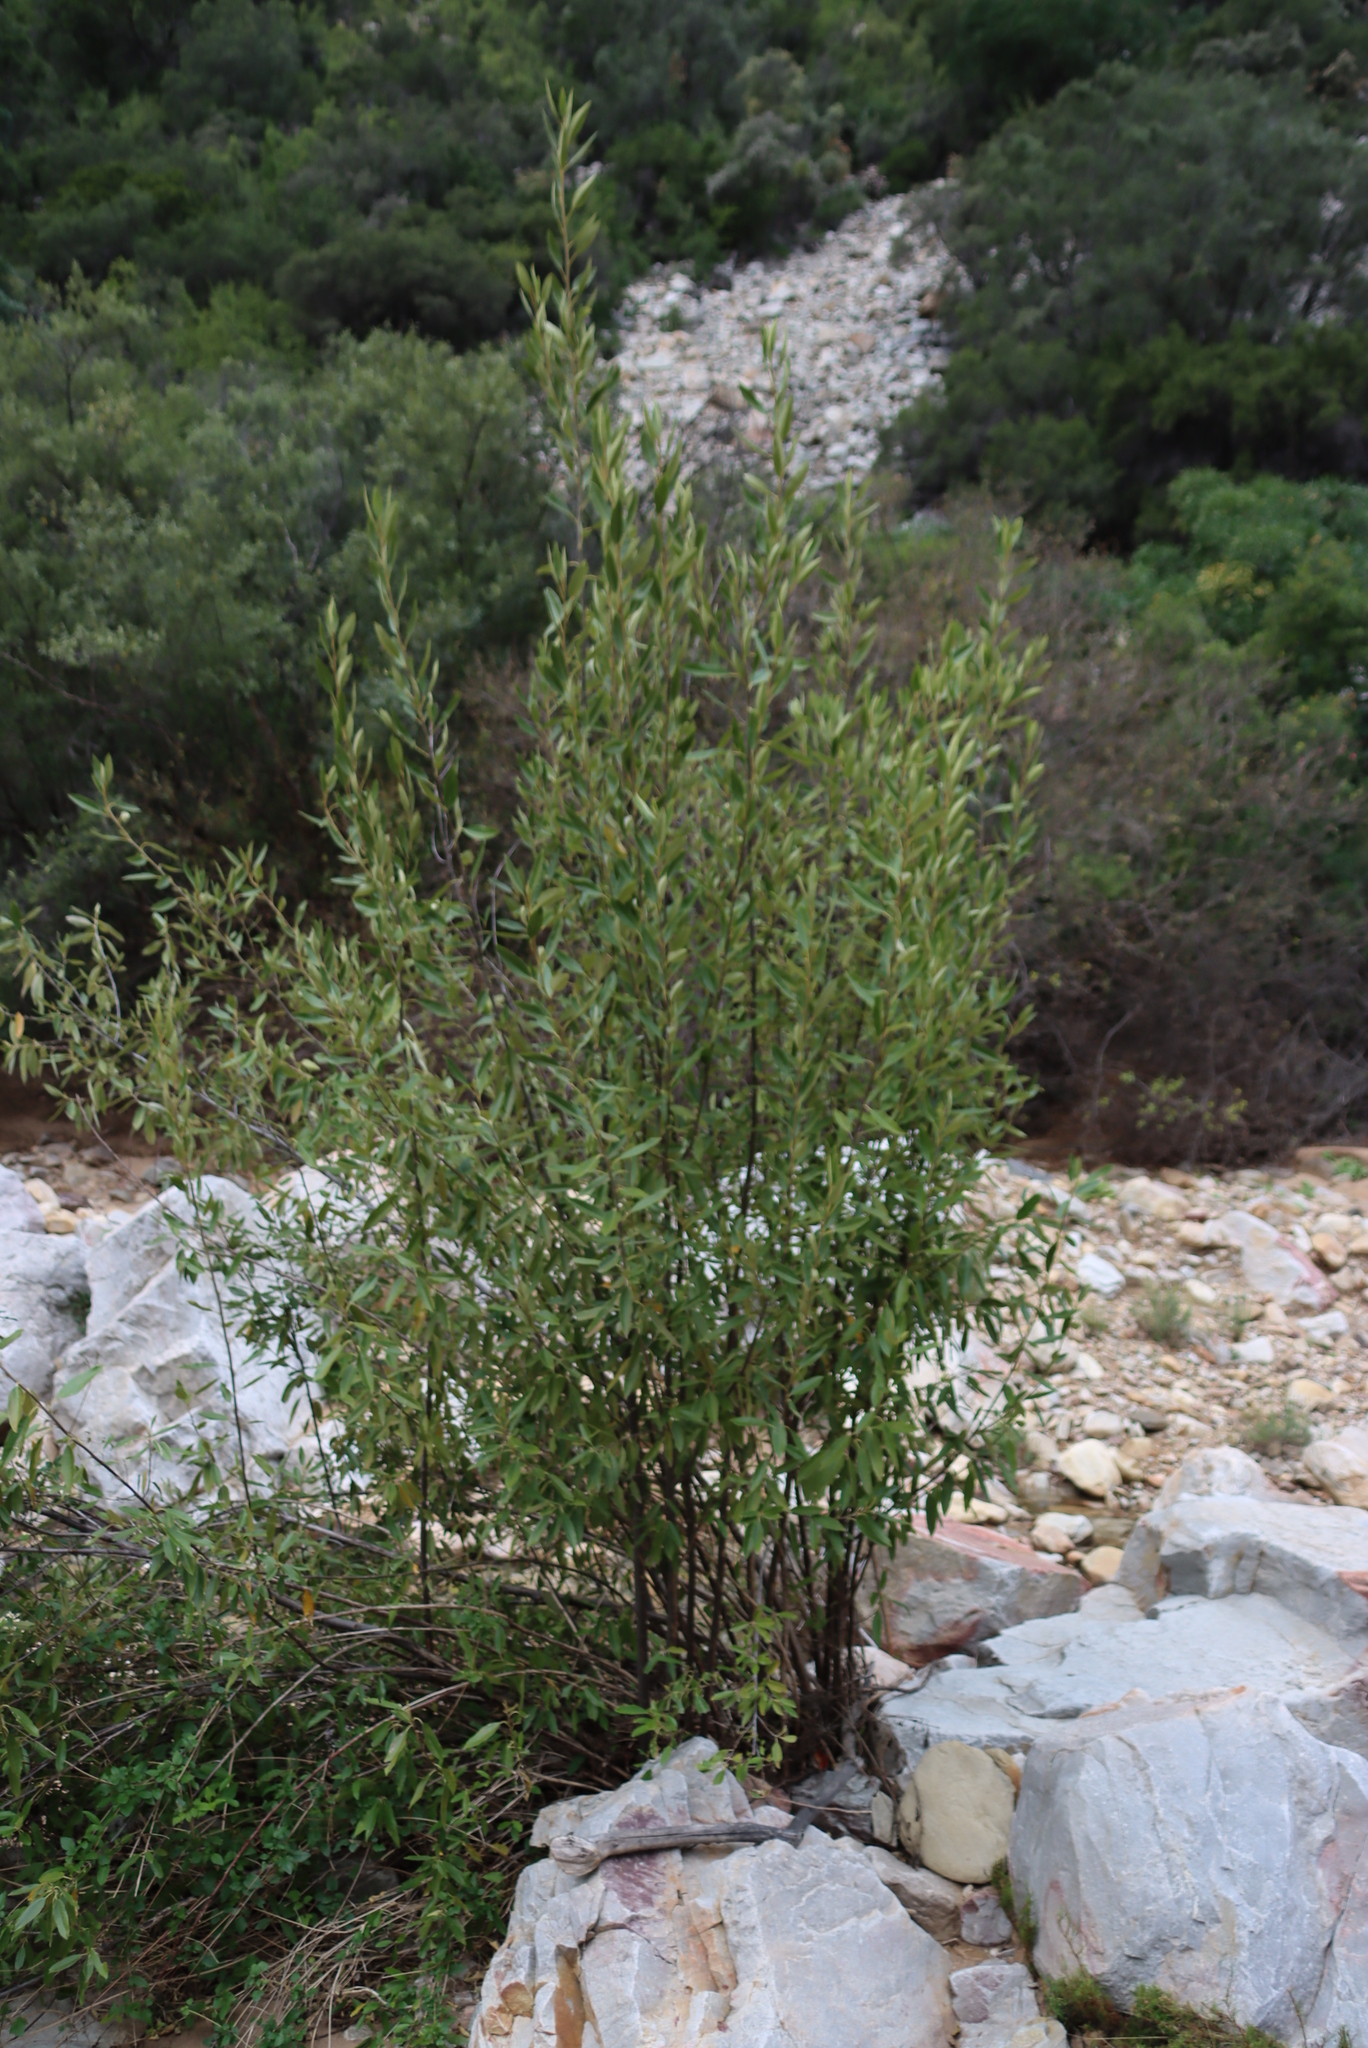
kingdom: Plantae
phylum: Tracheophyta
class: Magnoliopsida
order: Malpighiales
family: Achariaceae
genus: Kiggelaria
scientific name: Kiggelaria africana
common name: Wild peach
